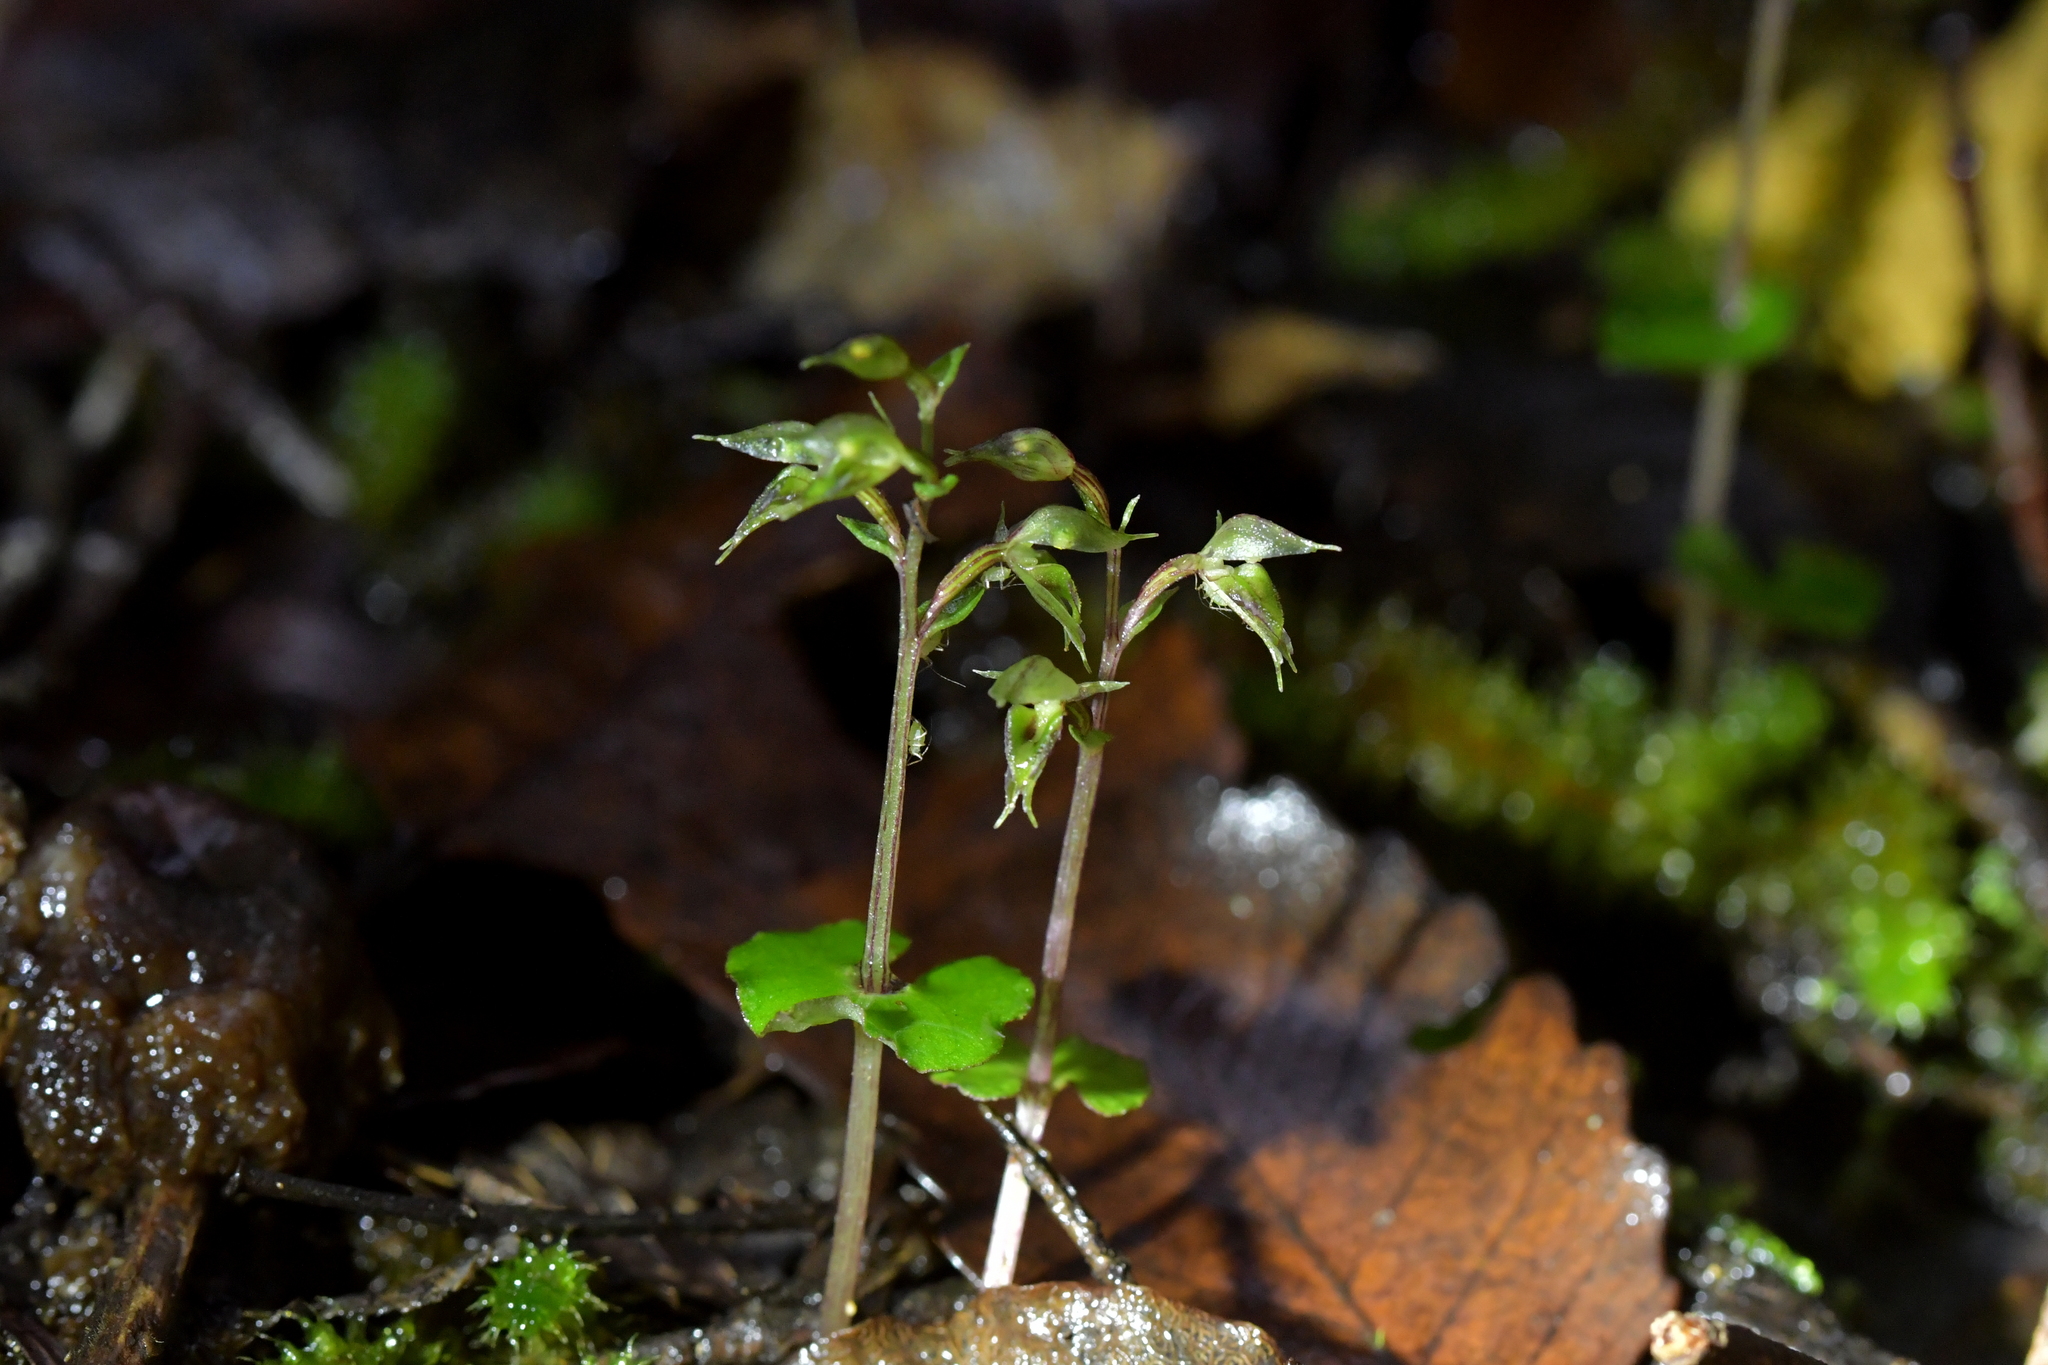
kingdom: Plantae
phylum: Tracheophyta
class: Liliopsida
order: Asparagales
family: Orchidaceae
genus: Acianthus
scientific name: Acianthus sinclairii
